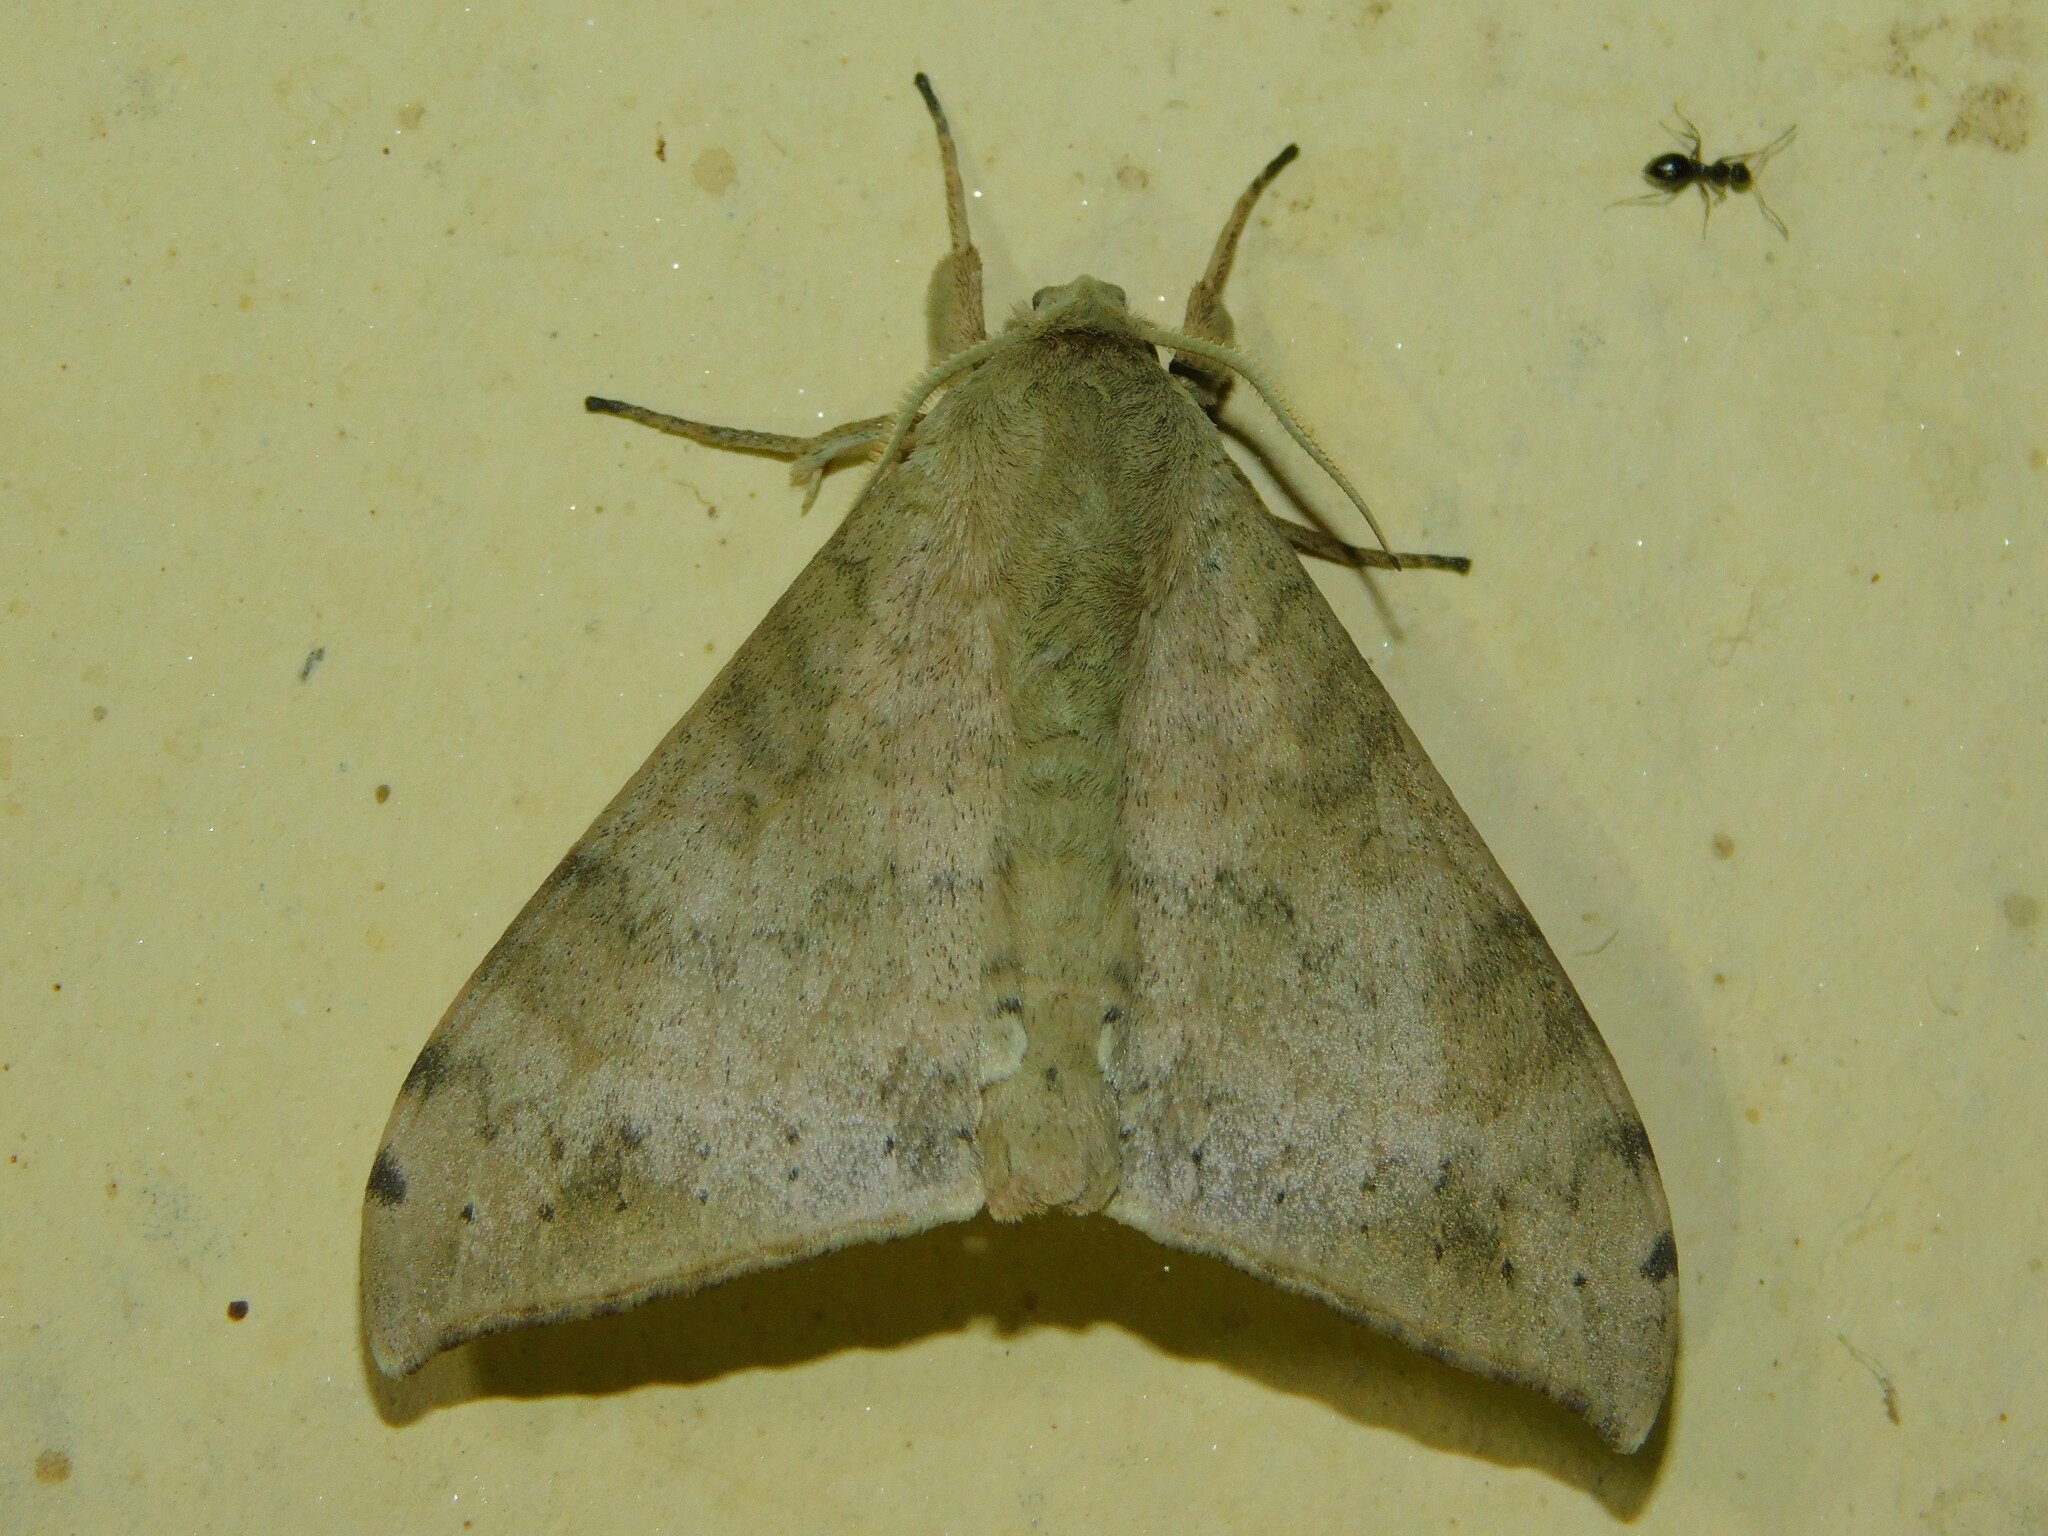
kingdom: Animalia
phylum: Arthropoda
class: Insecta
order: Lepidoptera
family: Sphingidae
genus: Andriasa
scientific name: Andriasa contraria
